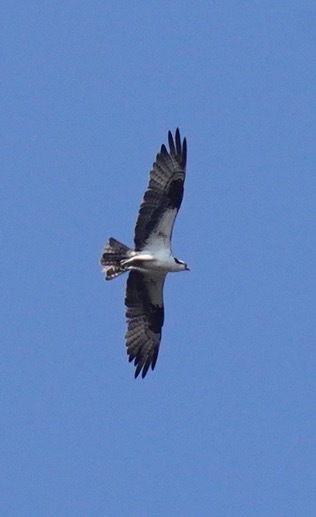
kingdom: Animalia
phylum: Chordata
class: Aves
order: Accipitriformes
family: Pandionidae
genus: Pandion
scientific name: Pandion haliaetus
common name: Osprey
